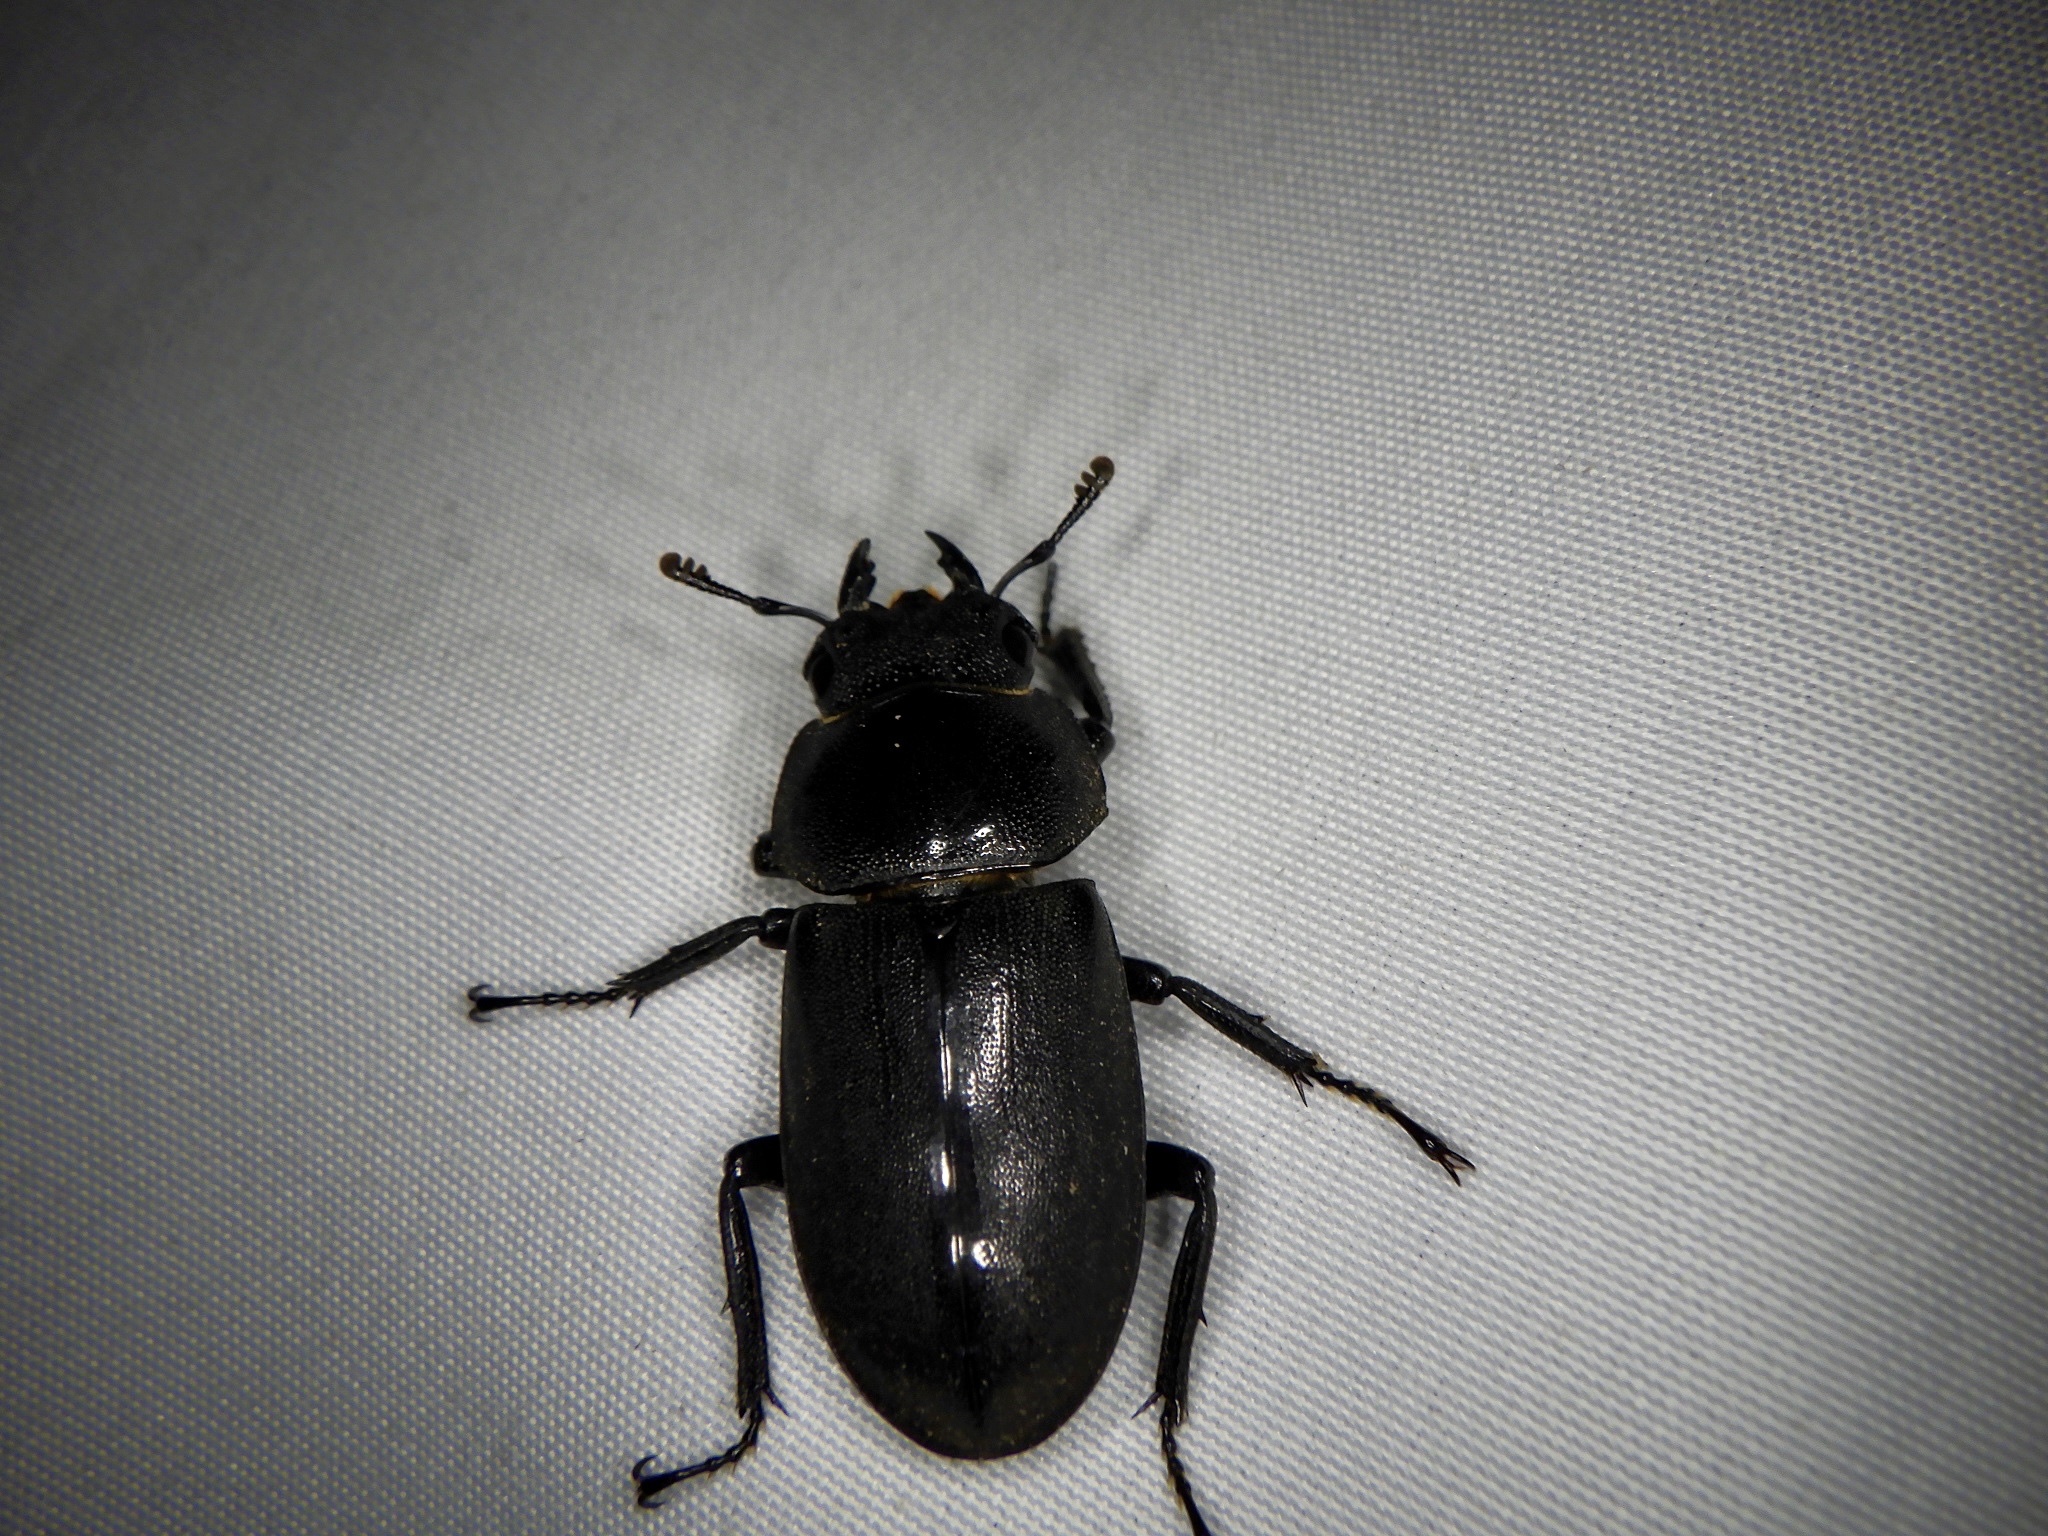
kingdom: Animalia
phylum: Arthropoda
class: Insecta
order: Coleoptera
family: Lucanidae
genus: Dorcus
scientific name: Dorcus rectus
